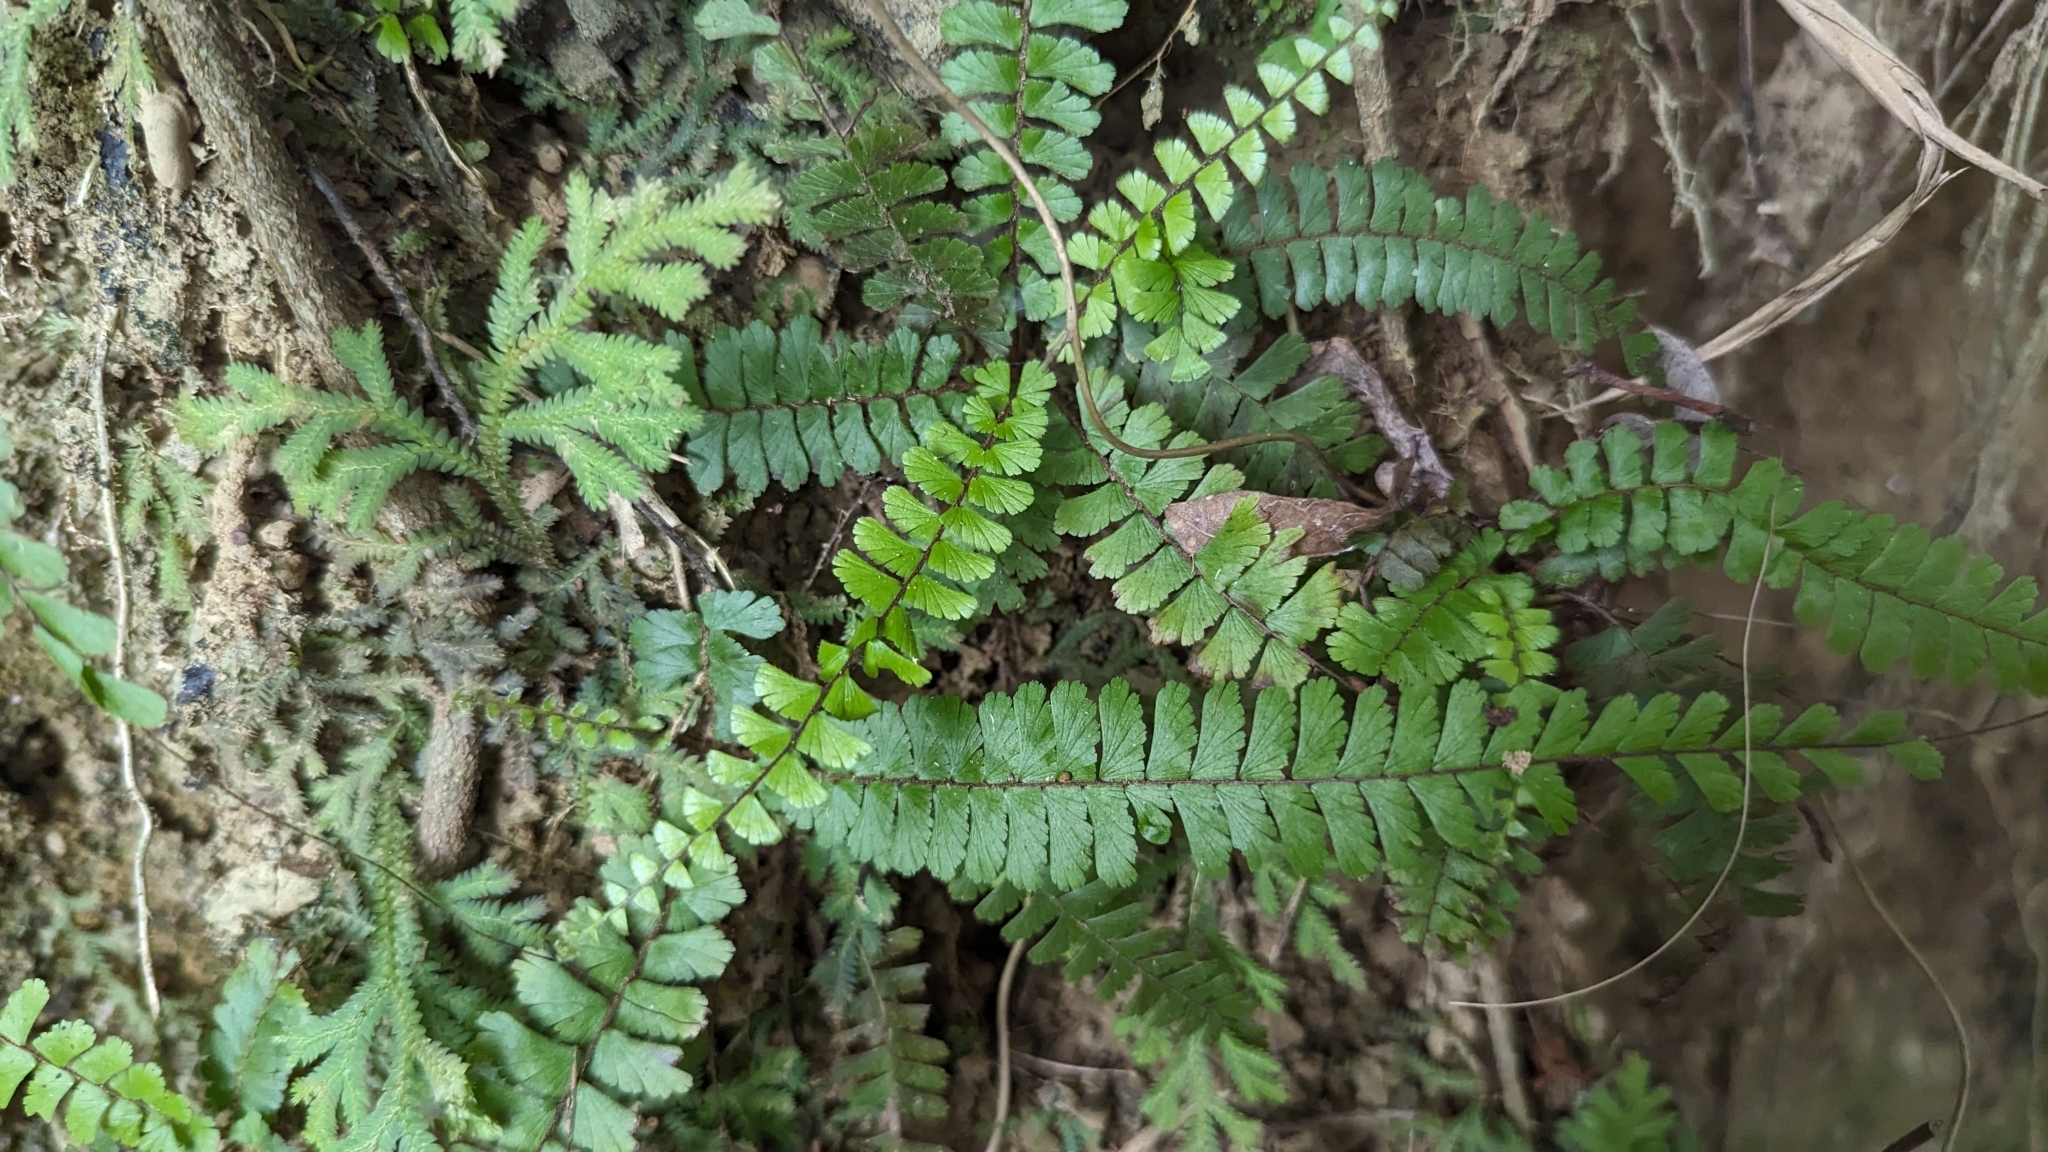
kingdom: Plantae
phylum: Tracheophyta
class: Polypodiopsida
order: Polypodiales
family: Pteridaceae
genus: Adiantum
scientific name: Adiantum caudatum
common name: Tailed maidenhair
